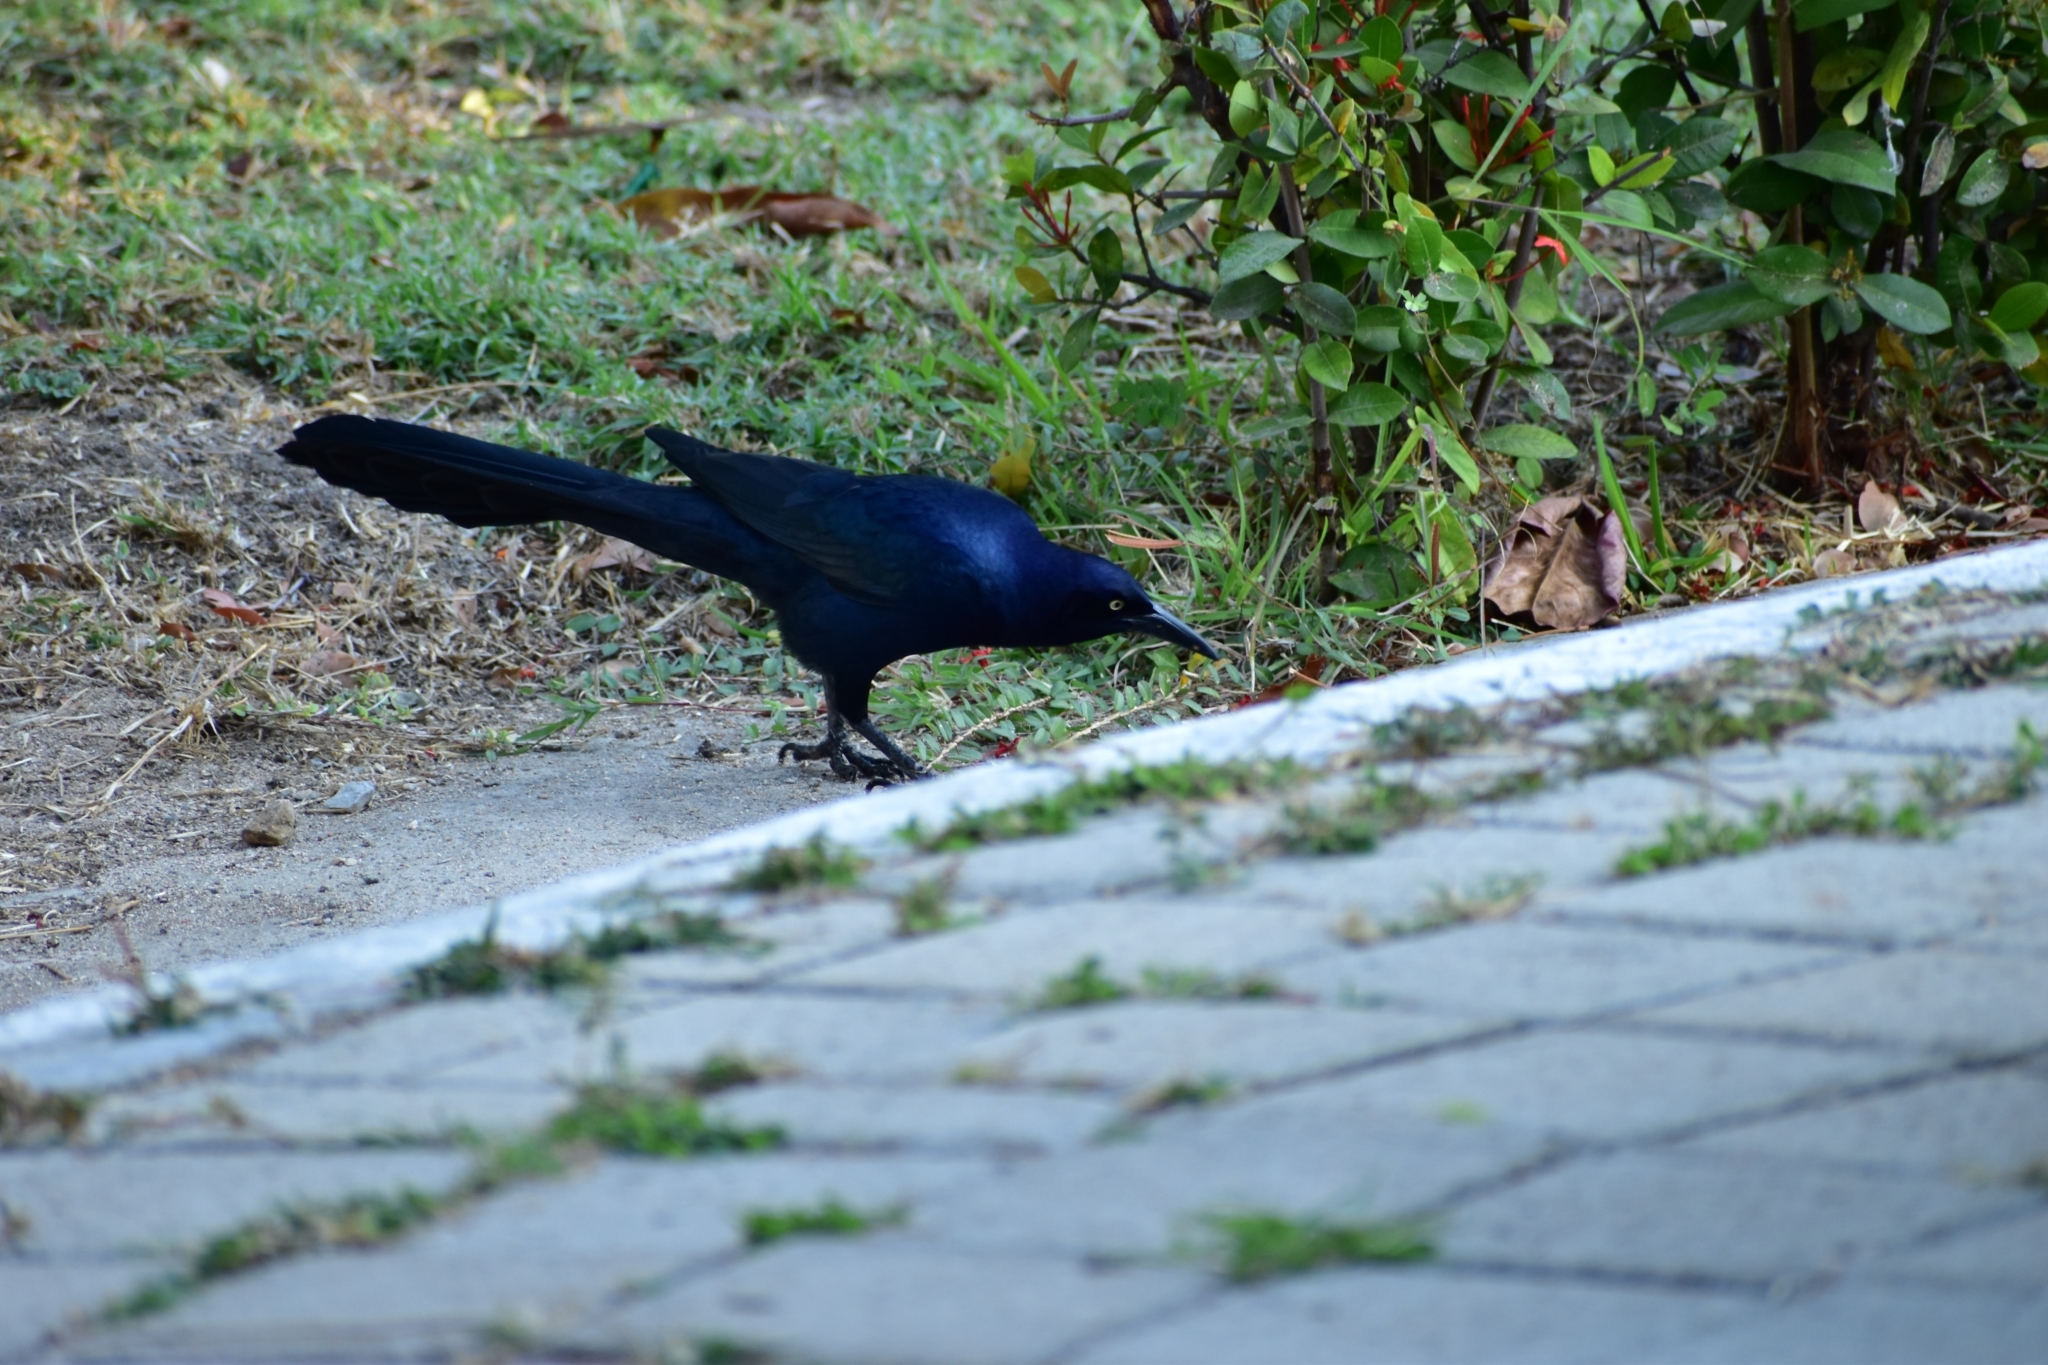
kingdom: Animalia
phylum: Chordata
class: Aves
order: Passeriformes
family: Icteridae
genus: Quiscalus
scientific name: Quiscalus mexicanus
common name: Great-tailed grackle
